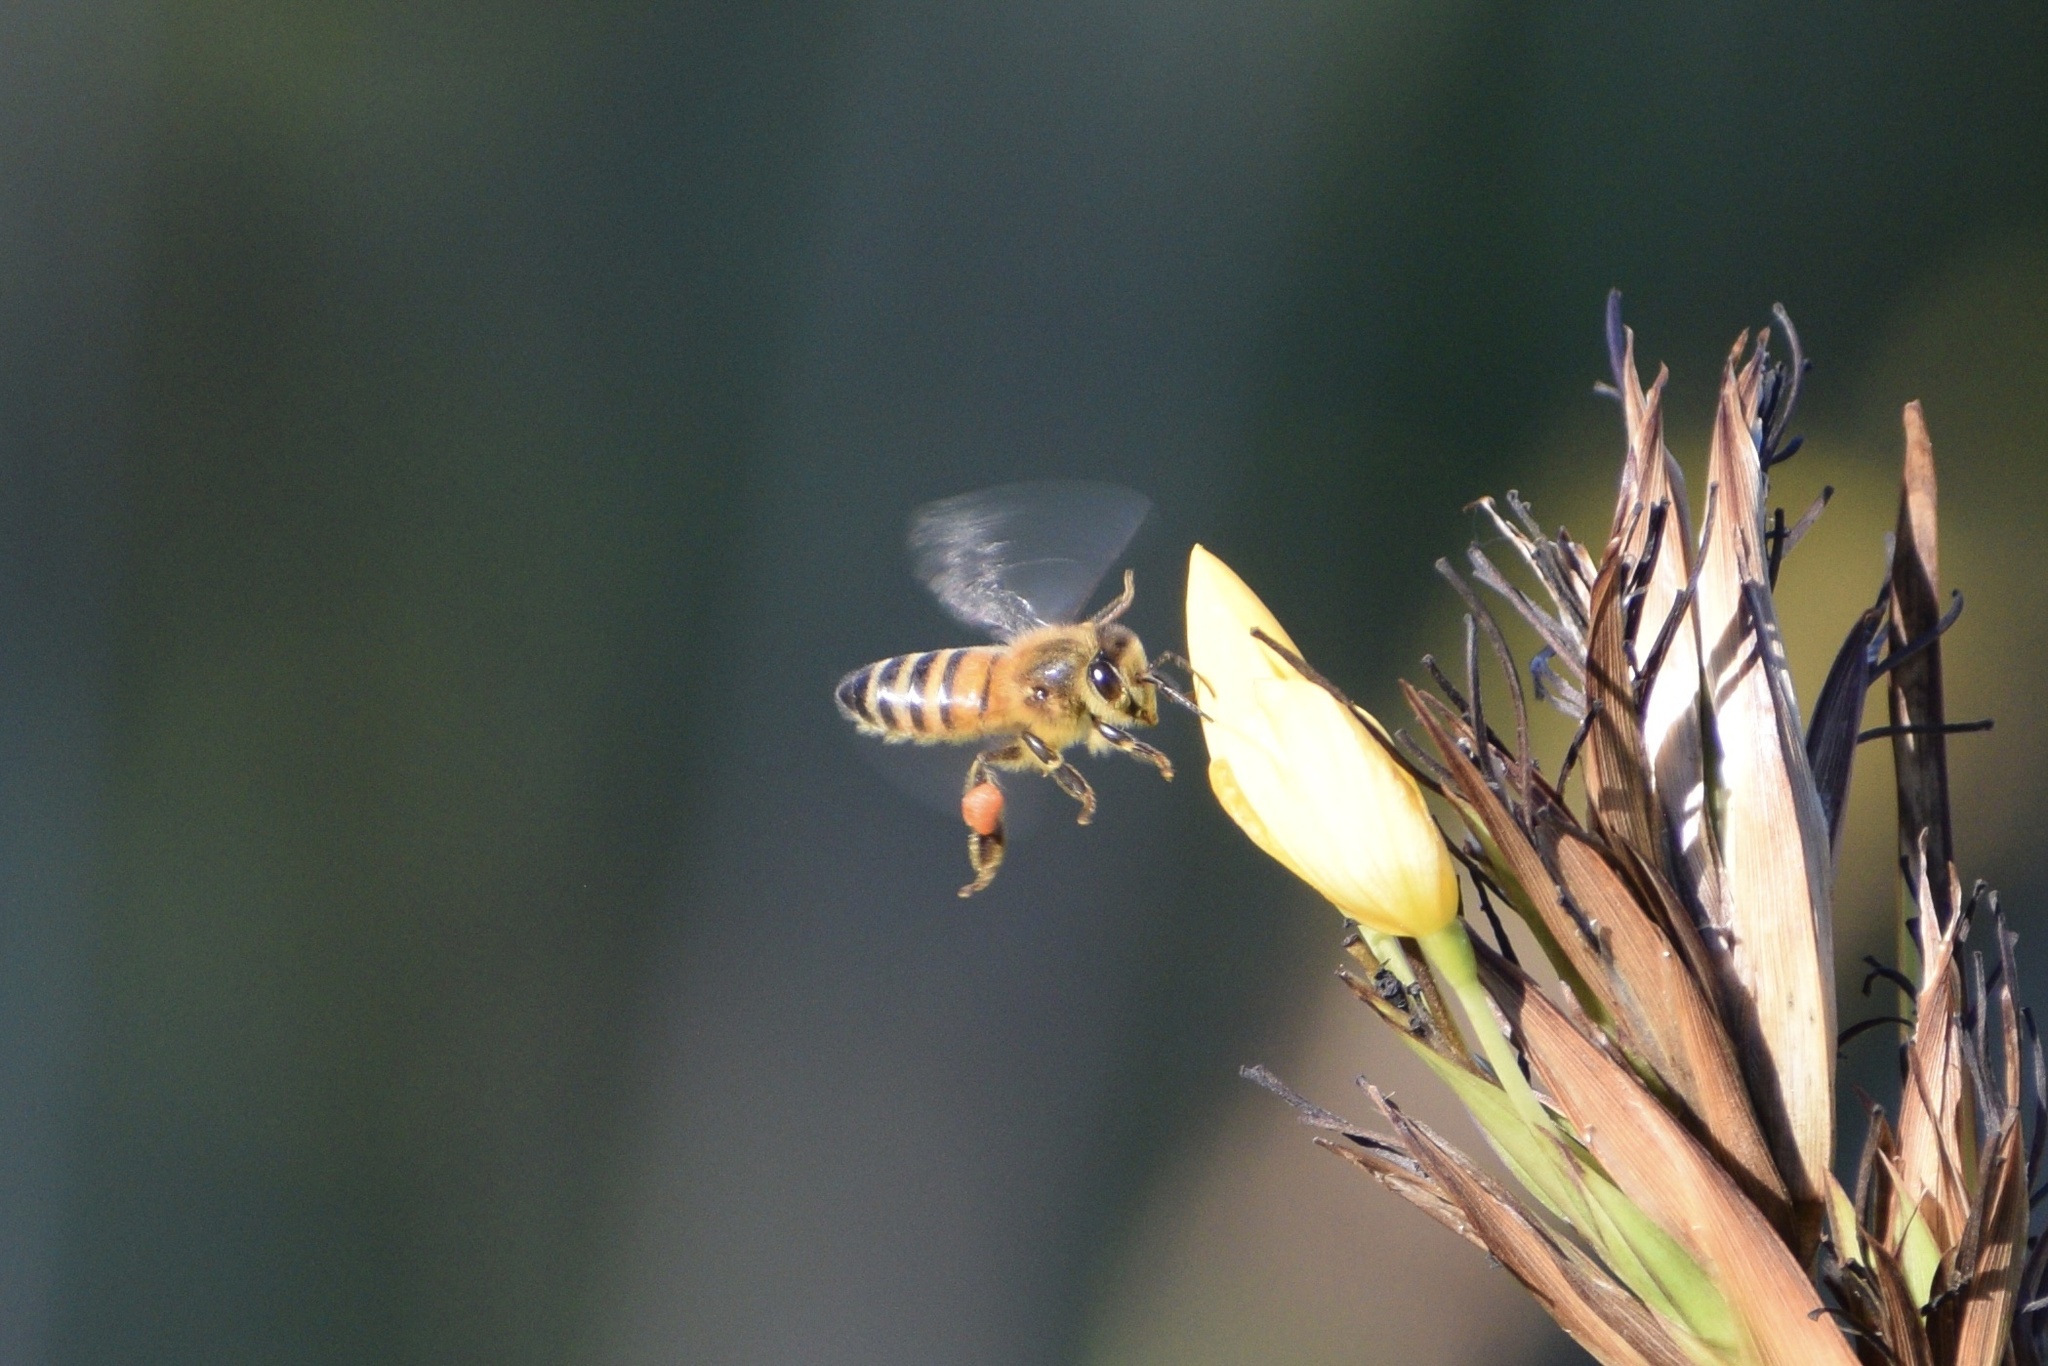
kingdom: Animalia
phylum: Arthropoda
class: Insecta
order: Hymenoptera
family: Apidae
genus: Apis
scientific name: Apis mellifera
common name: Honey bee
